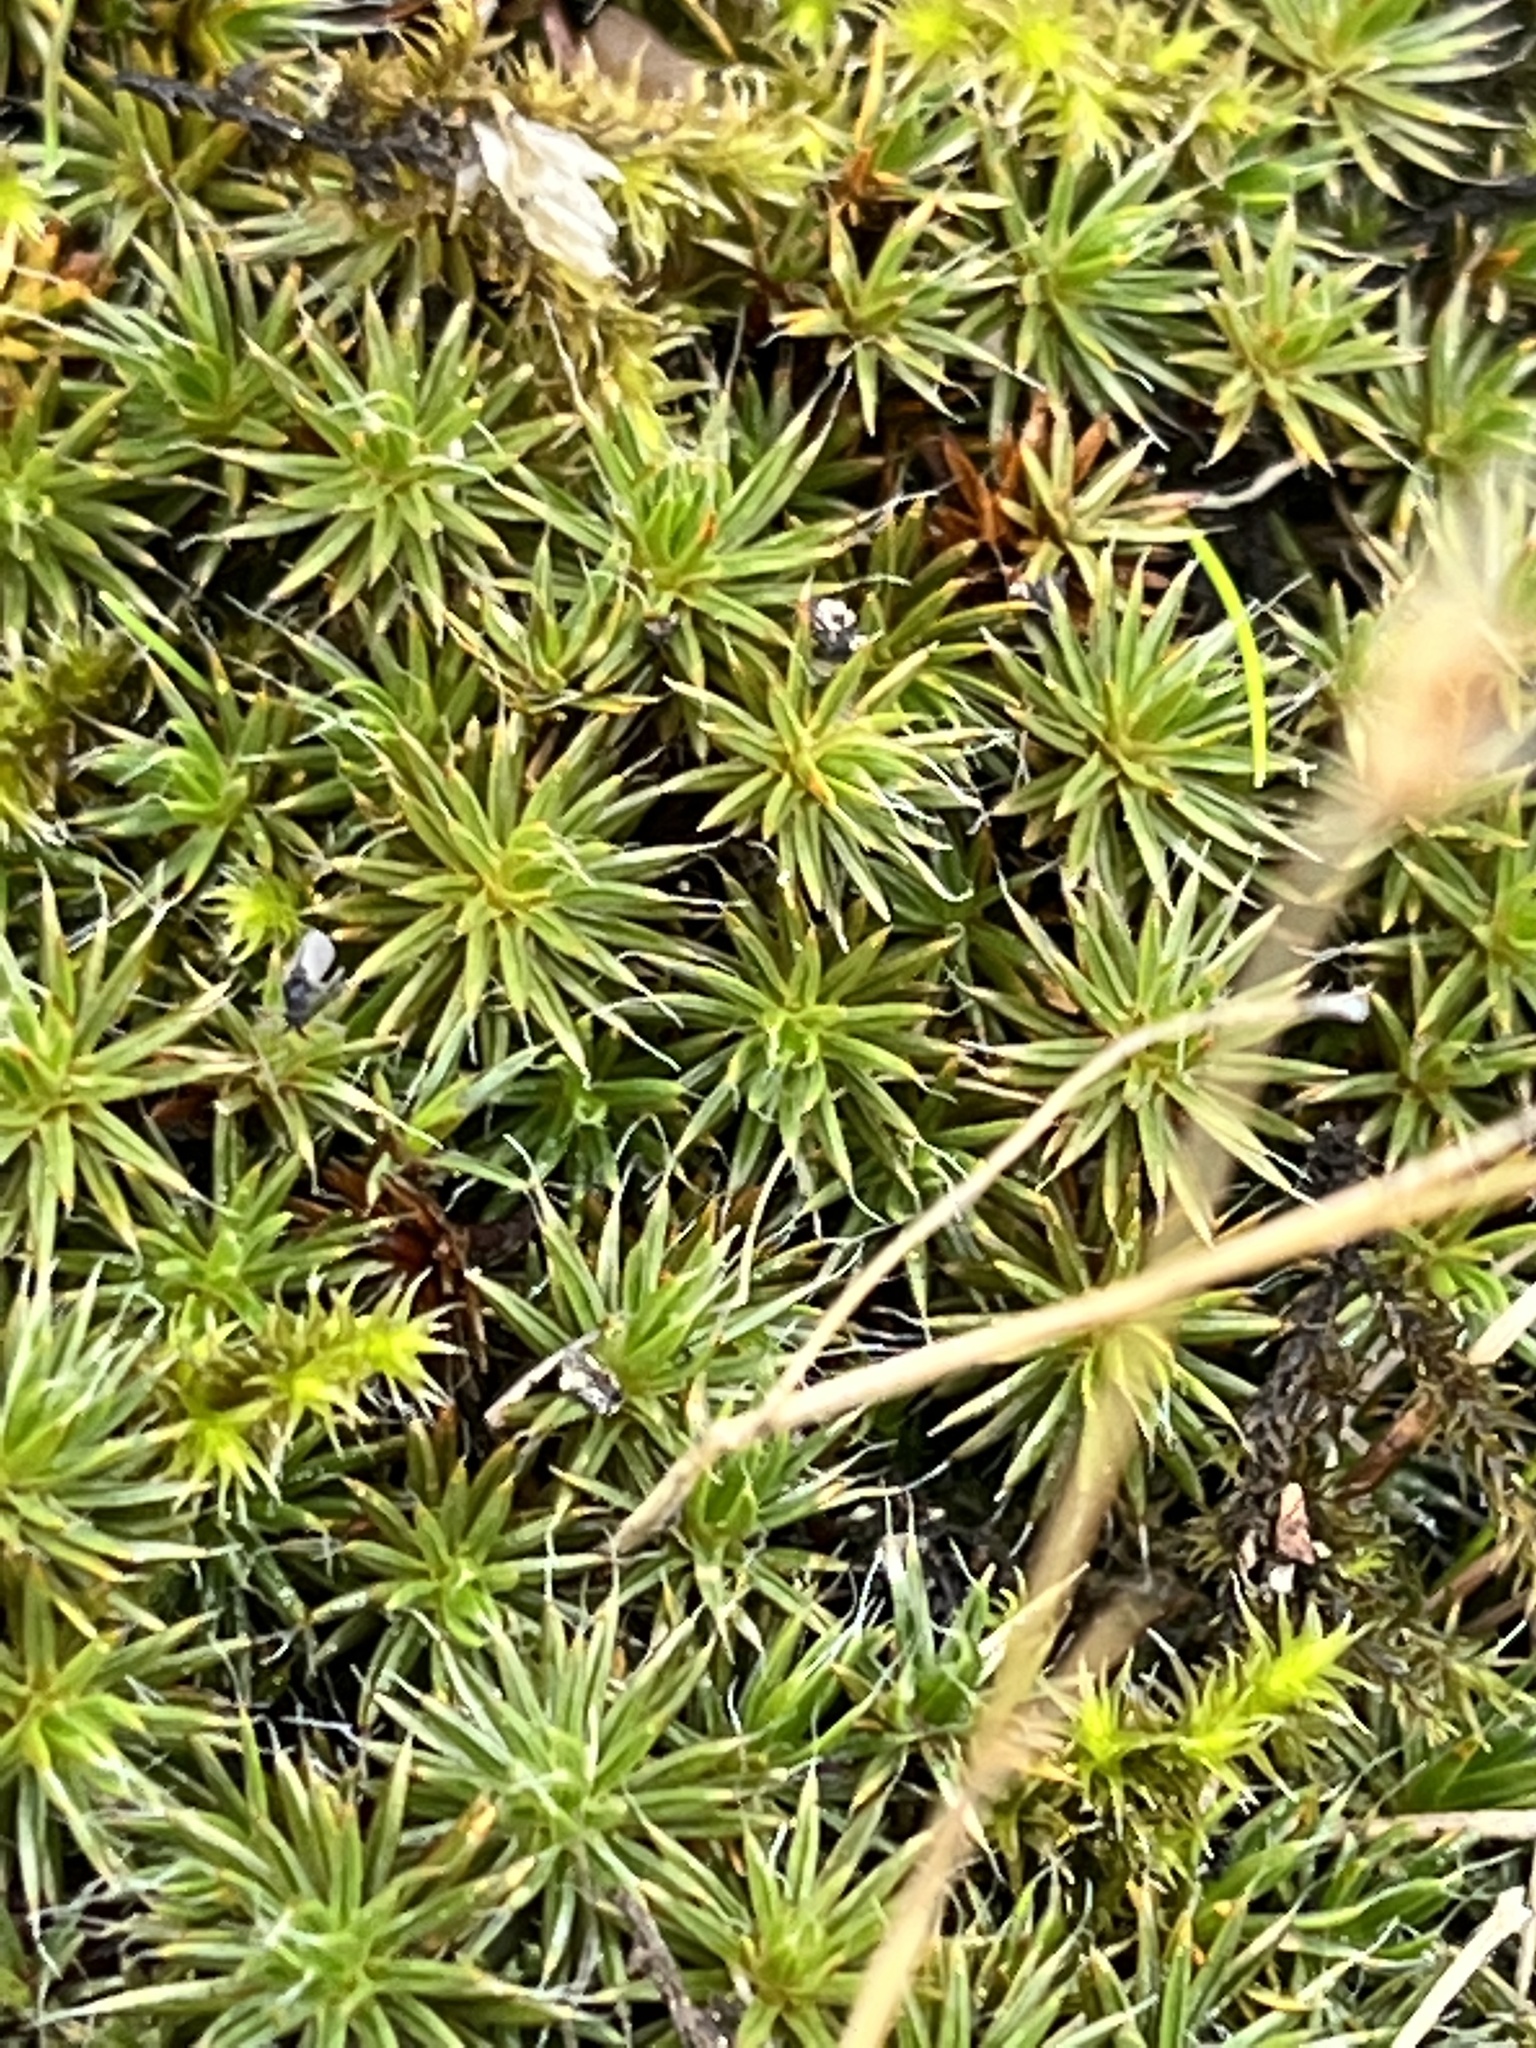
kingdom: Plantae
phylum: Bryophyta
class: Polytrichopsida
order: Polytrichales
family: Polytrichaceae
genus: Polytrichum
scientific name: Polytrichum piliferum
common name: Bristly haircap
